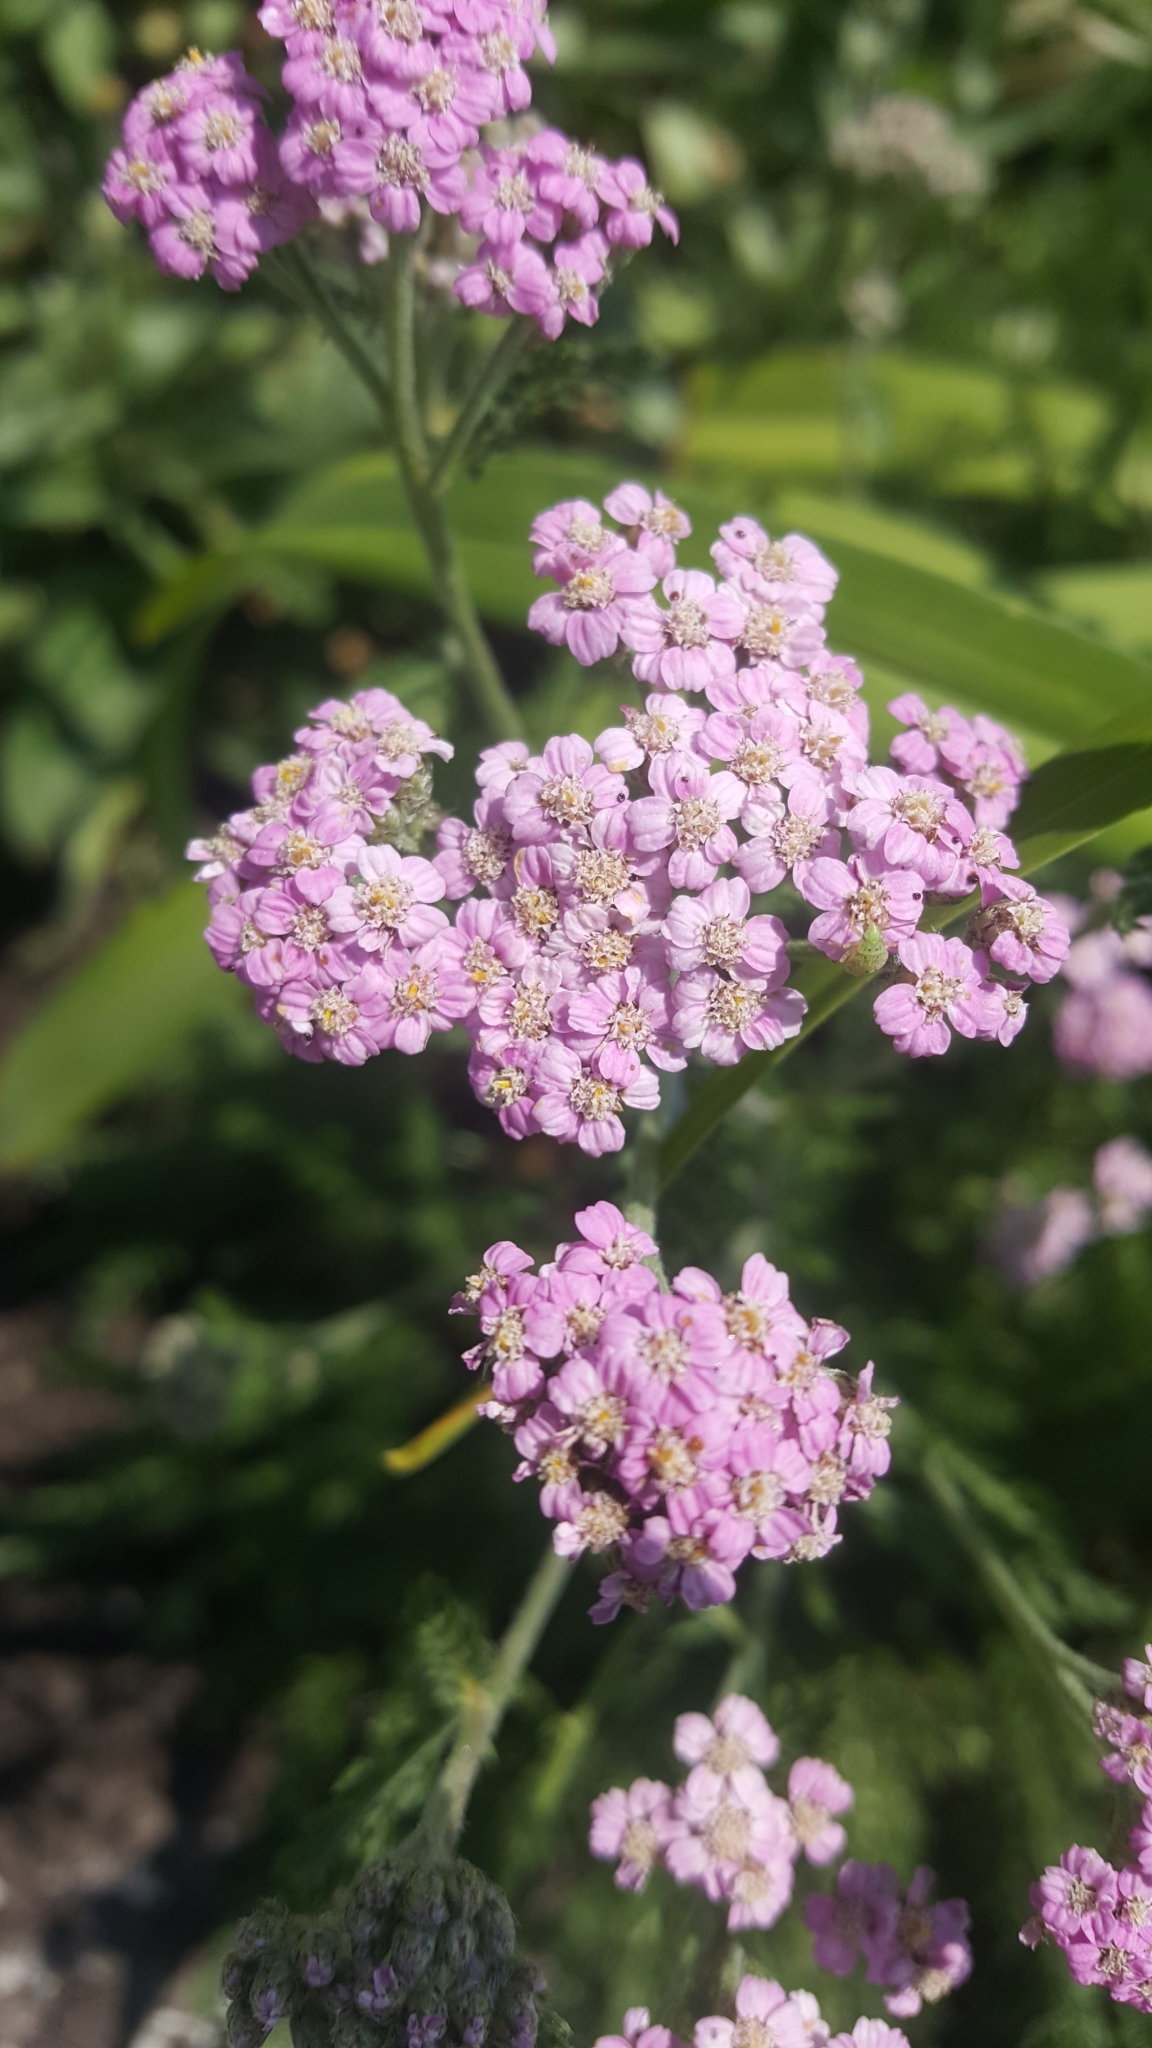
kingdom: Plantae
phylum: Tracheophyta
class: Magnoliopsida
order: Asterales
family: Asteraceae
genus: Achillea
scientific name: Achillea millefolium
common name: Yarrow
